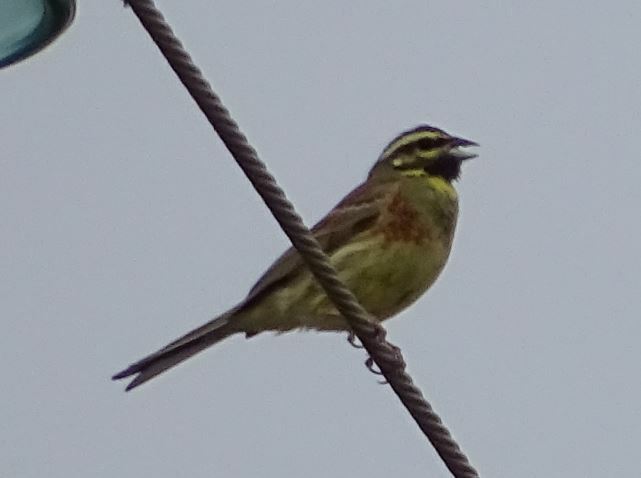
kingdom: Animalia
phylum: Chordata
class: Aves
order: Passeriformes
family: Emberizidae
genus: Emberiza
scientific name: Emberiza cirlus
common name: Cirl bunting
